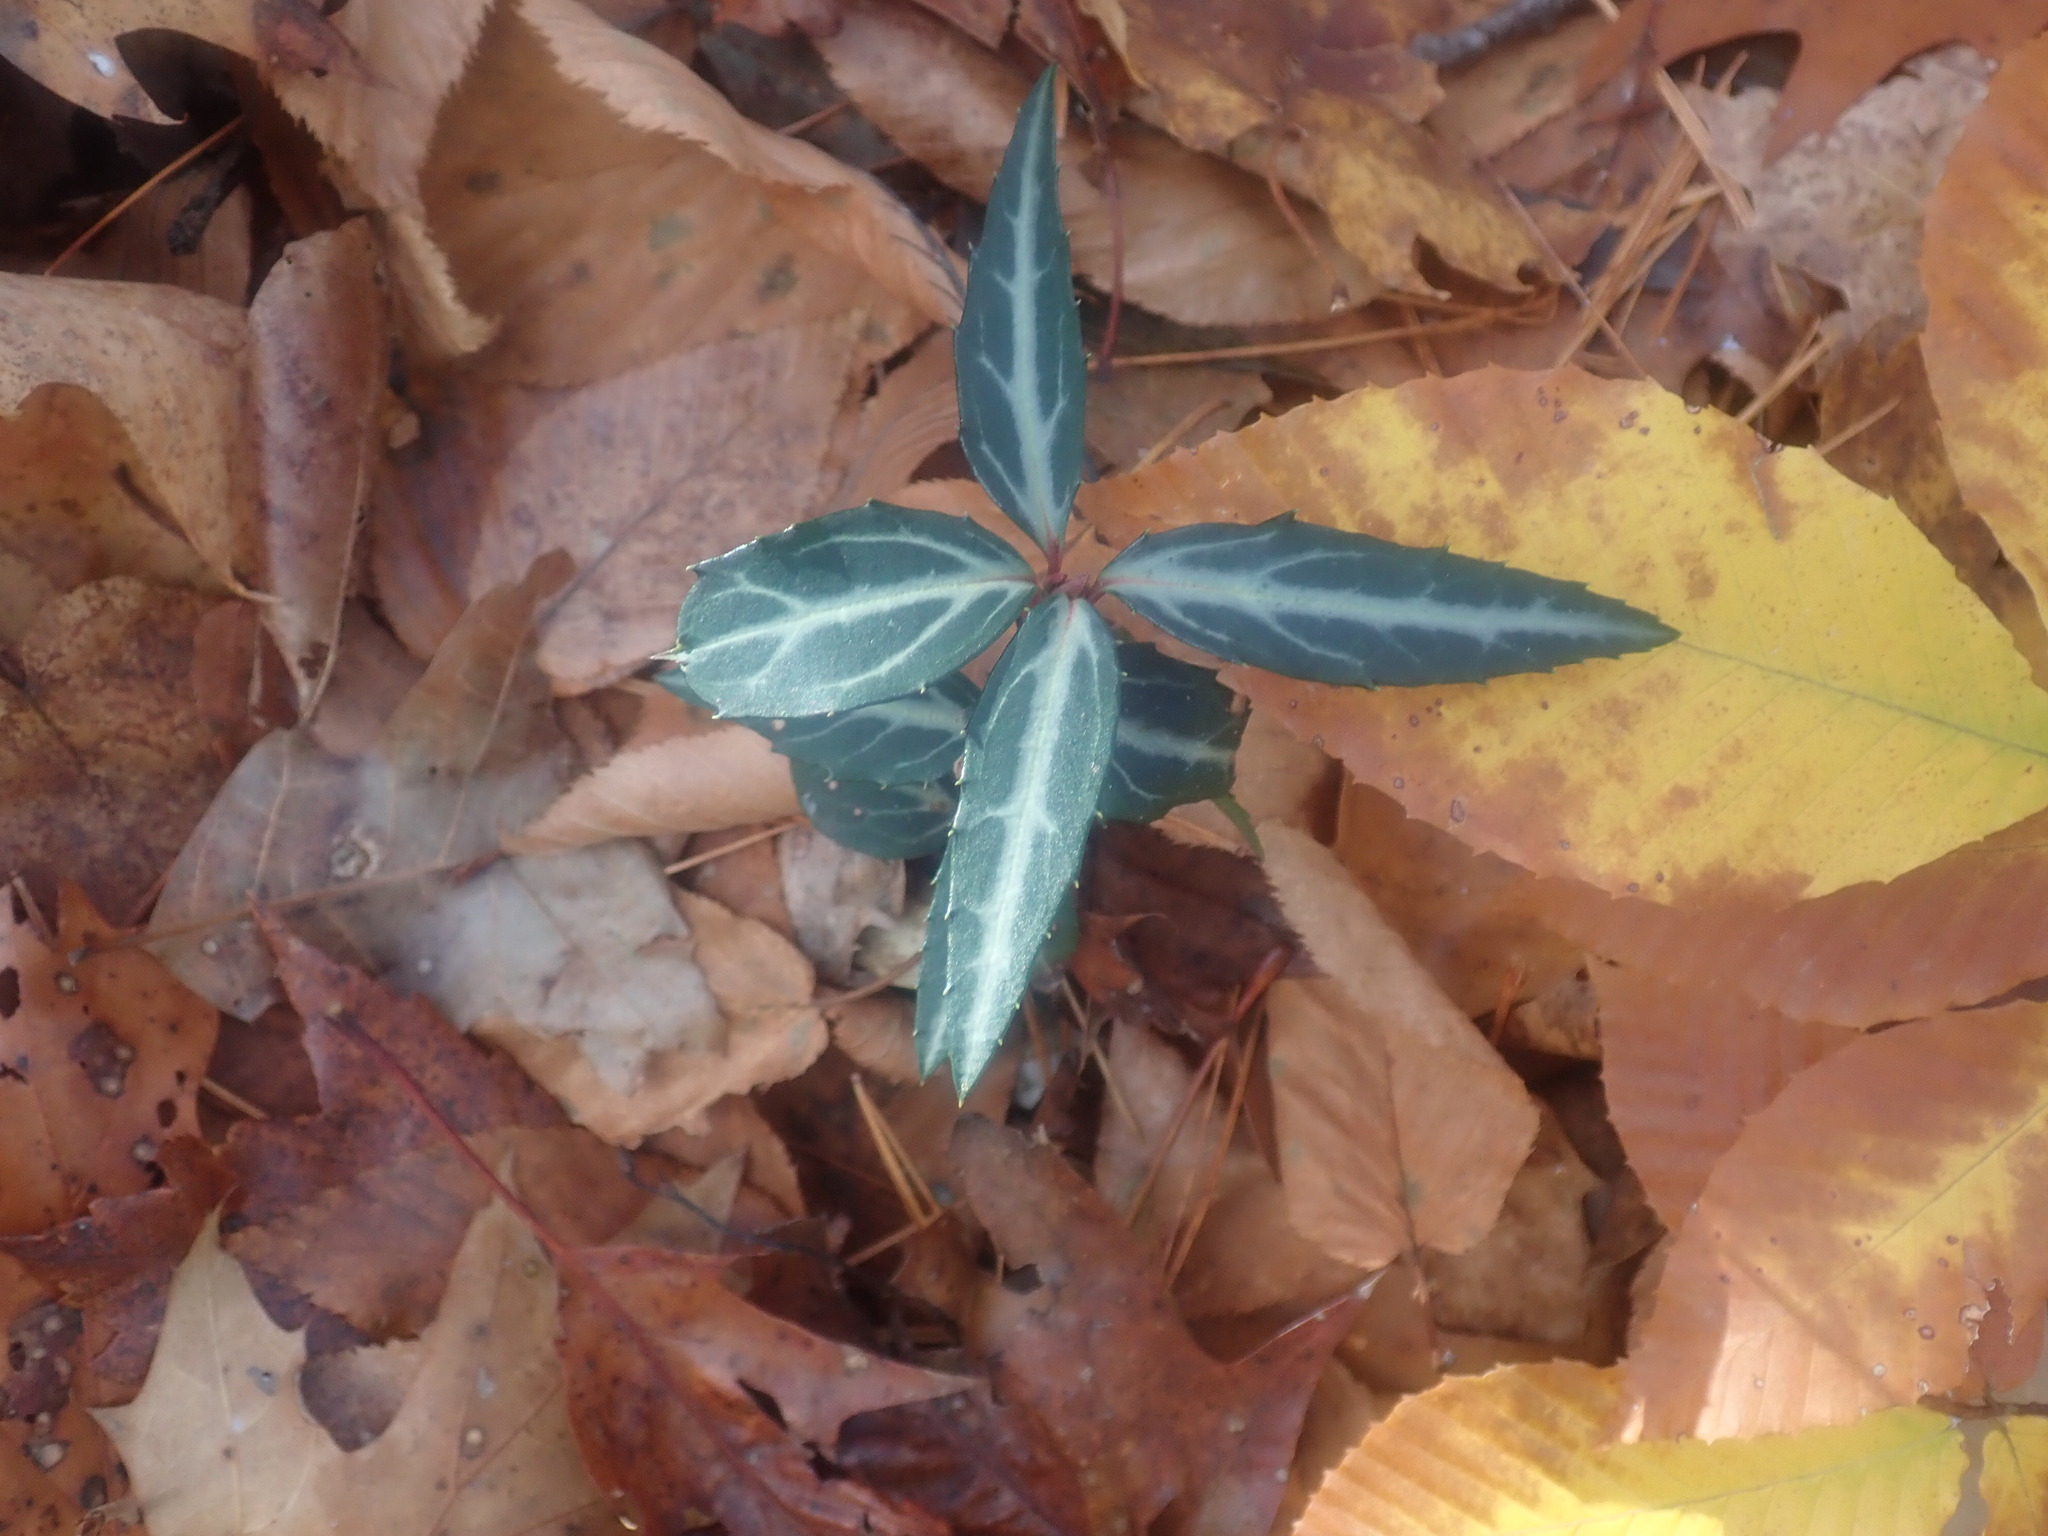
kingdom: Plantae
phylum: Tracheophyta
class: Magnoliopsida
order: Ericales
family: Ericaceae
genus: Chimaphila
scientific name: Chimaphila maculata
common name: Spotted pipsissewa
